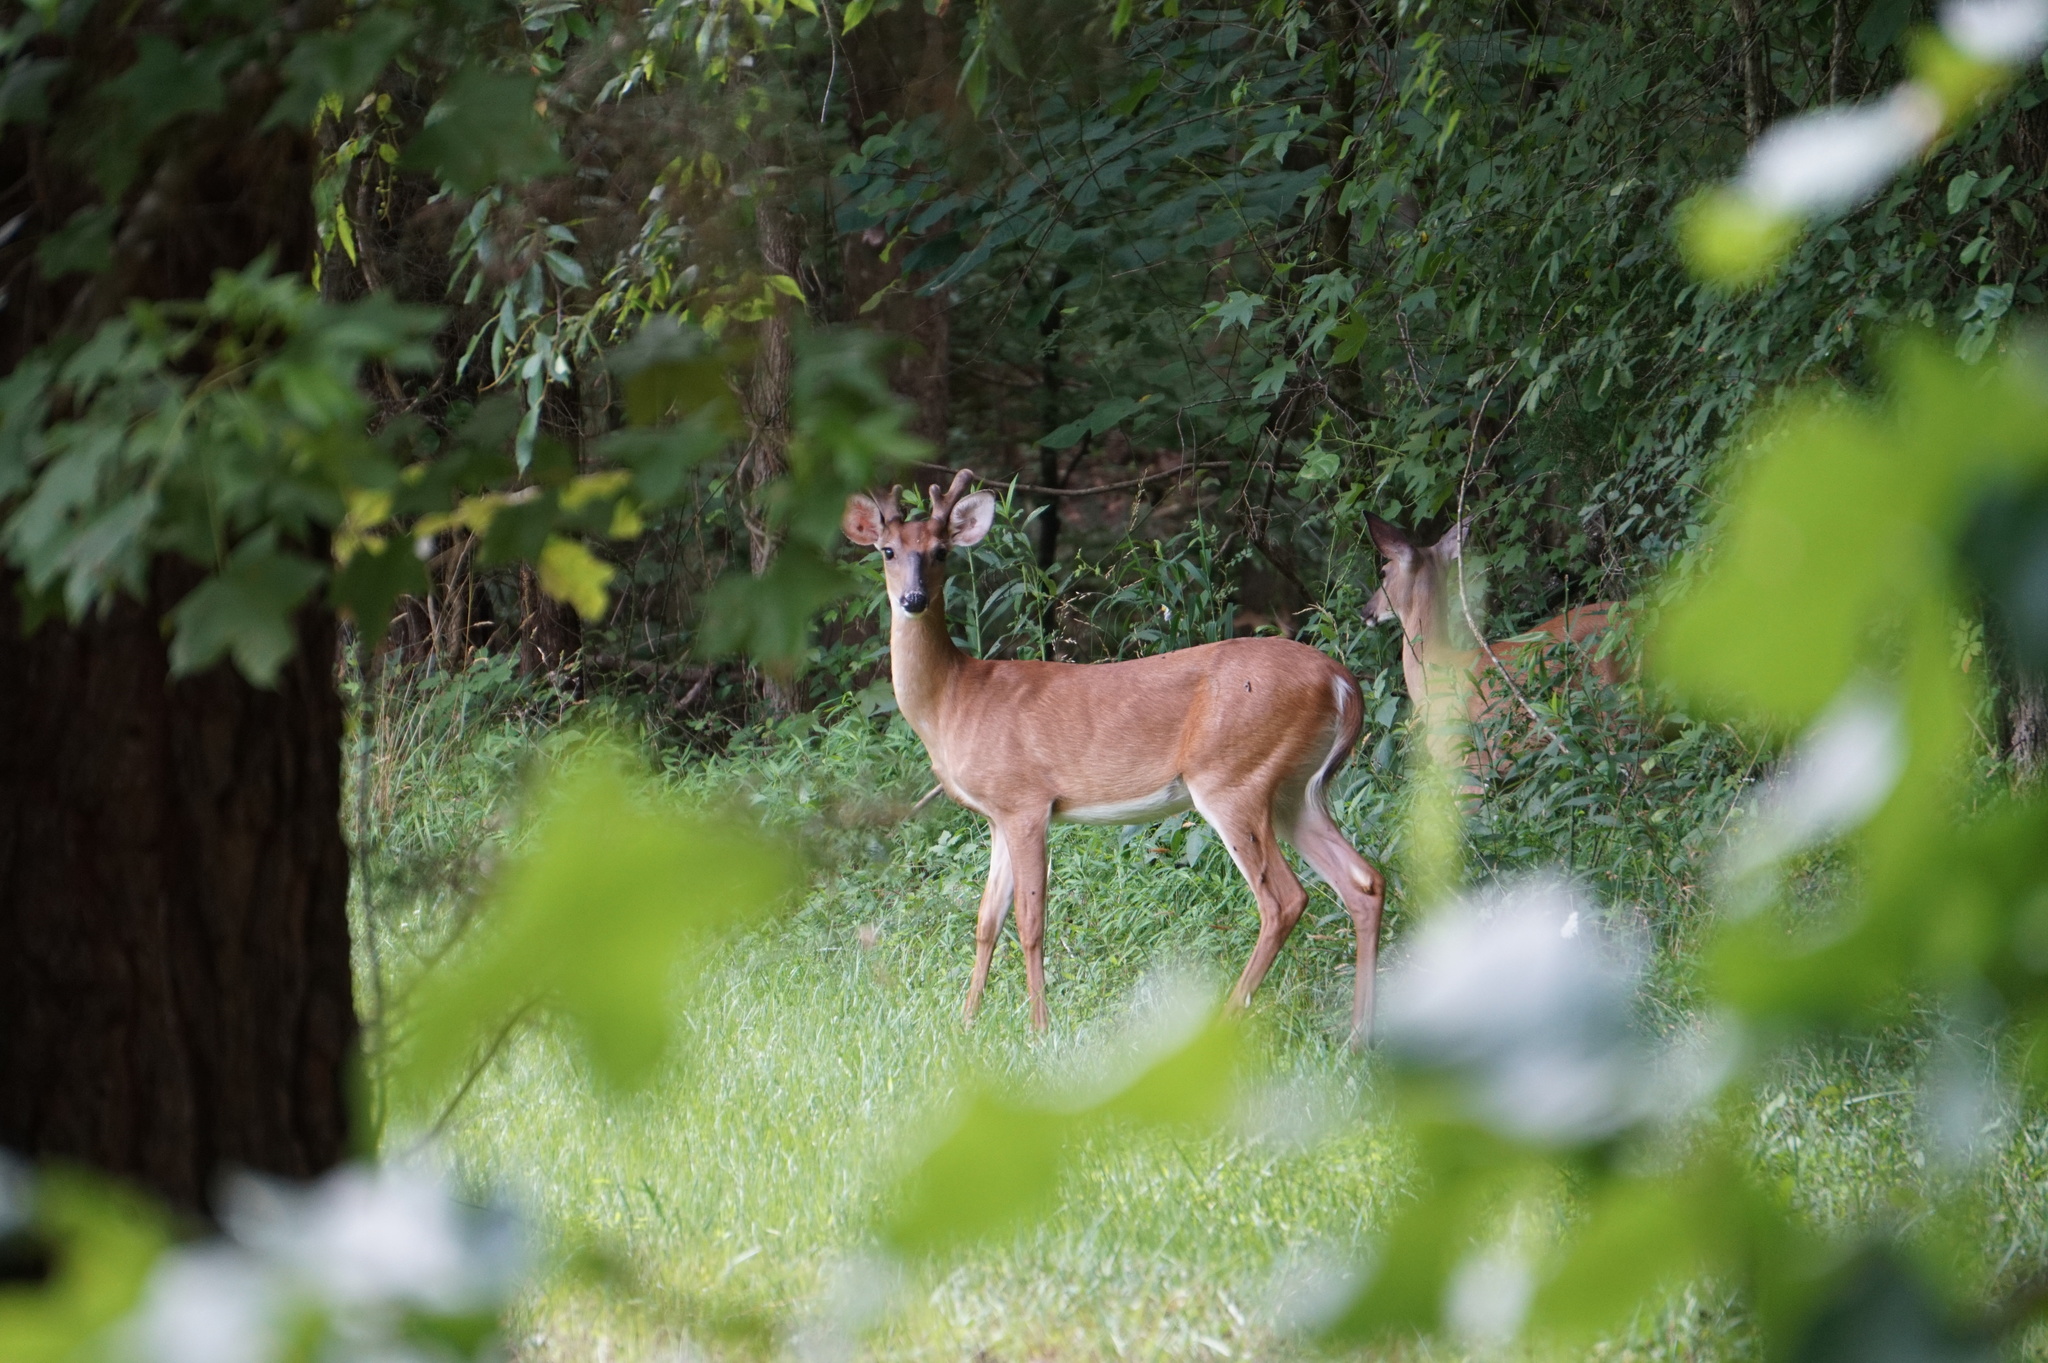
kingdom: Animalia
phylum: Chordata
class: Mammalia
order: Artiodactyla
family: Cervidae
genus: Odocoileus
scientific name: Odocoileus virginianus
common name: White-tailed deer
